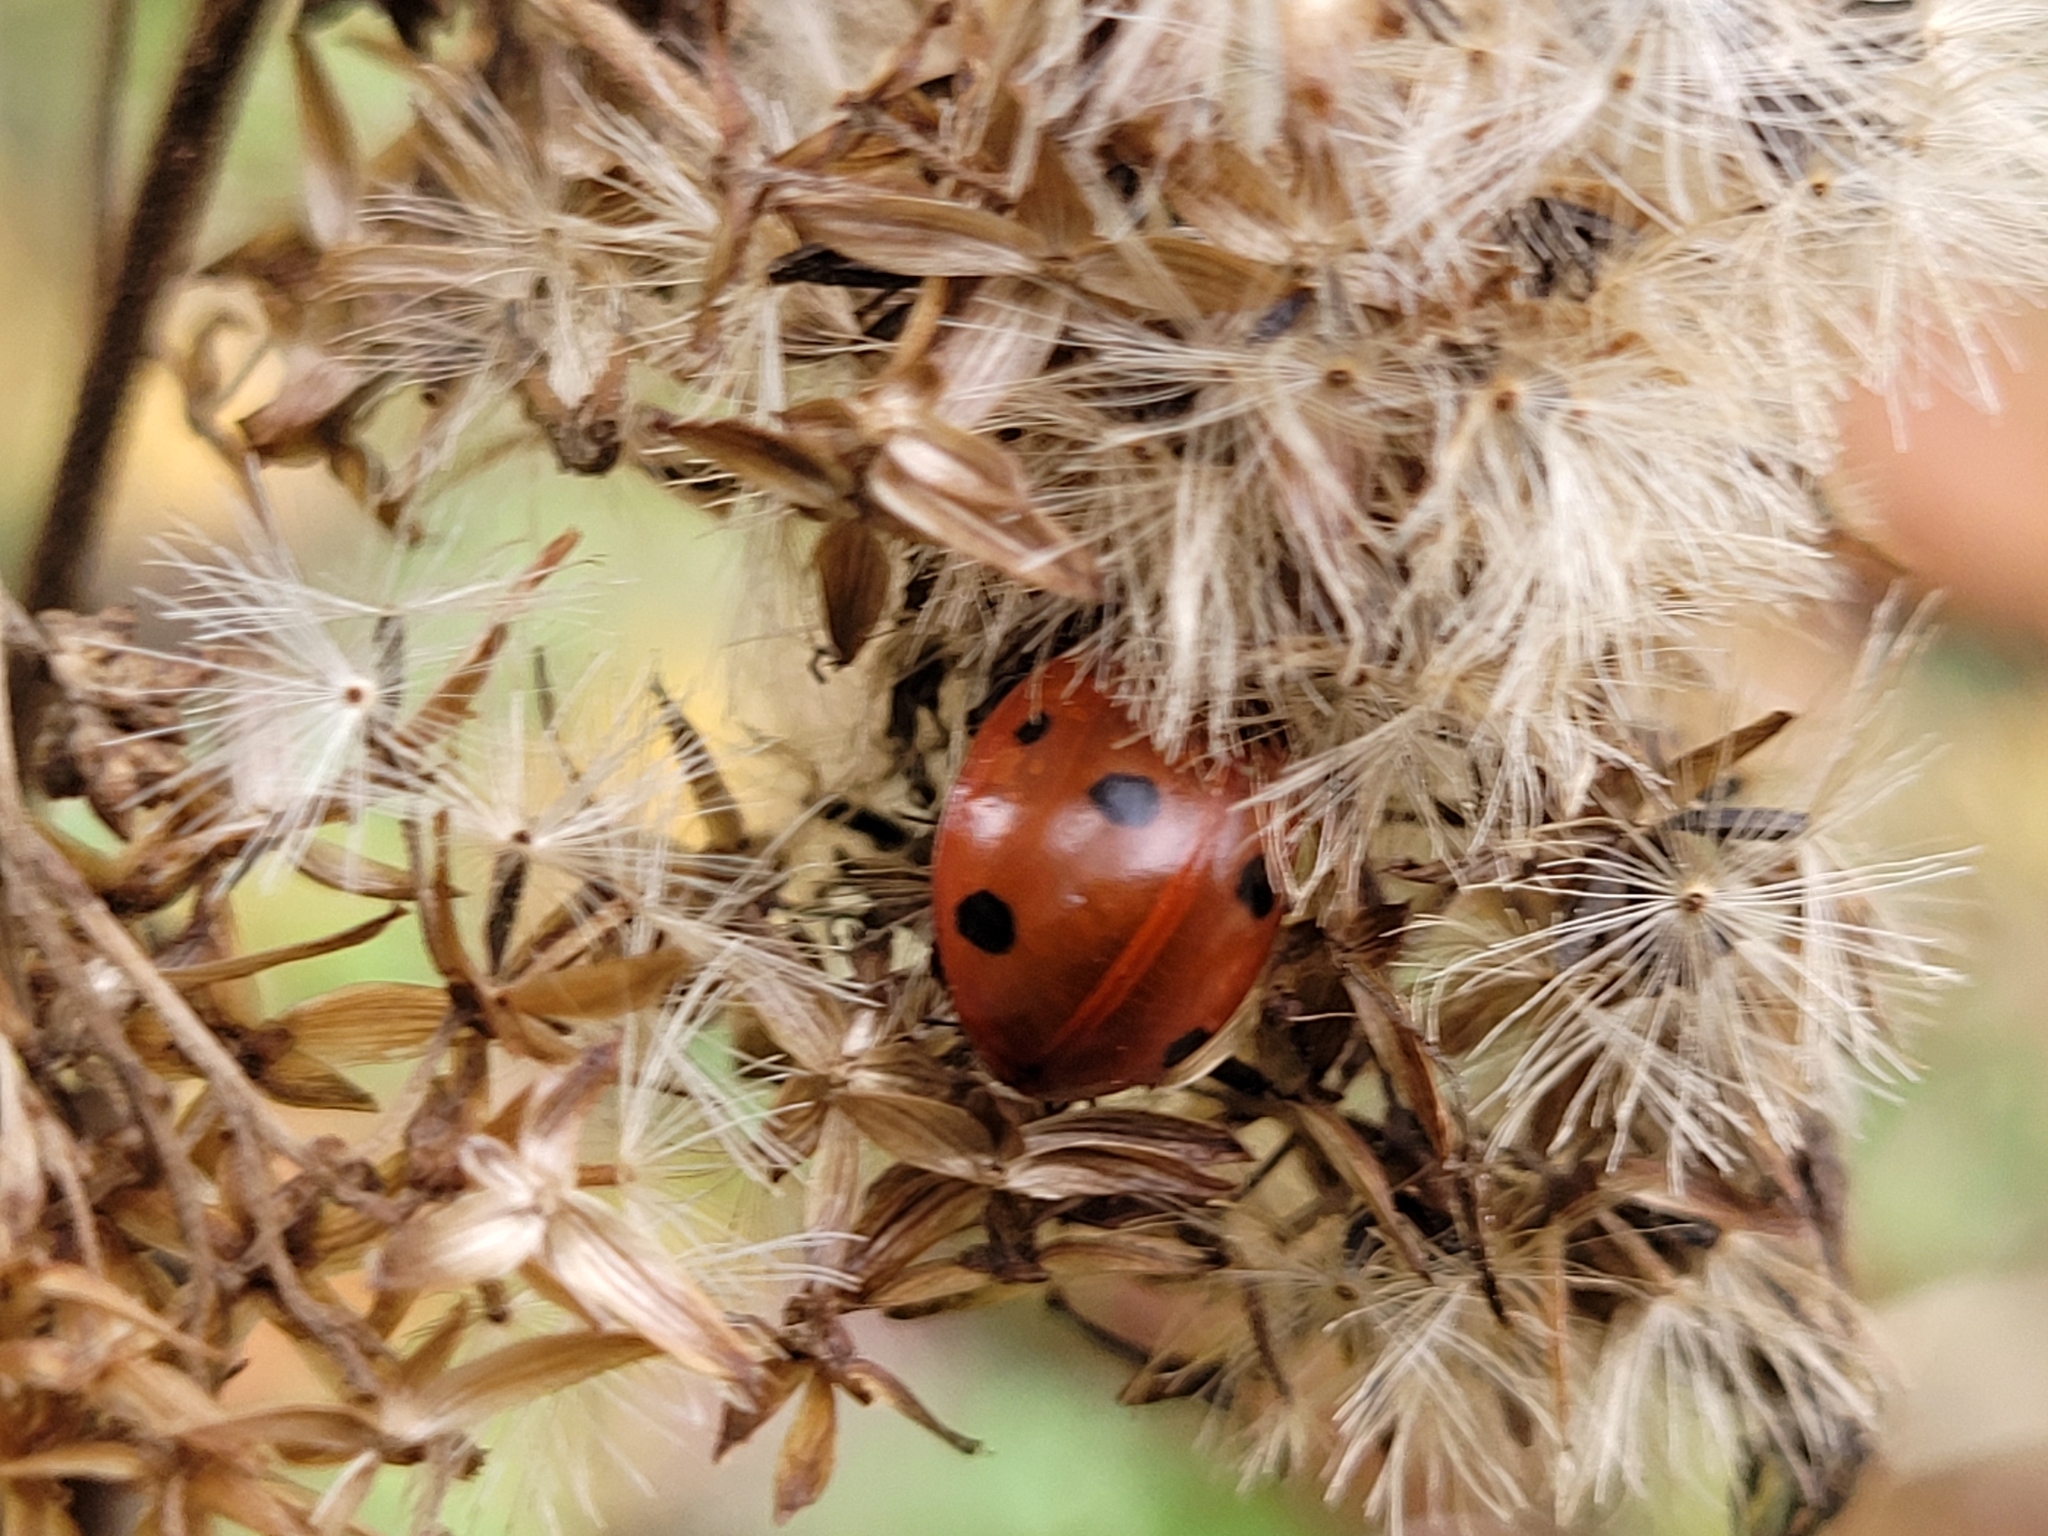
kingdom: Animalia
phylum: Arthropoda
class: Insecta
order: Coleoptera
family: Coccinellidae
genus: Coccinella
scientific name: Coccinella septempunctata
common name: Sevenspotted lady beetle
